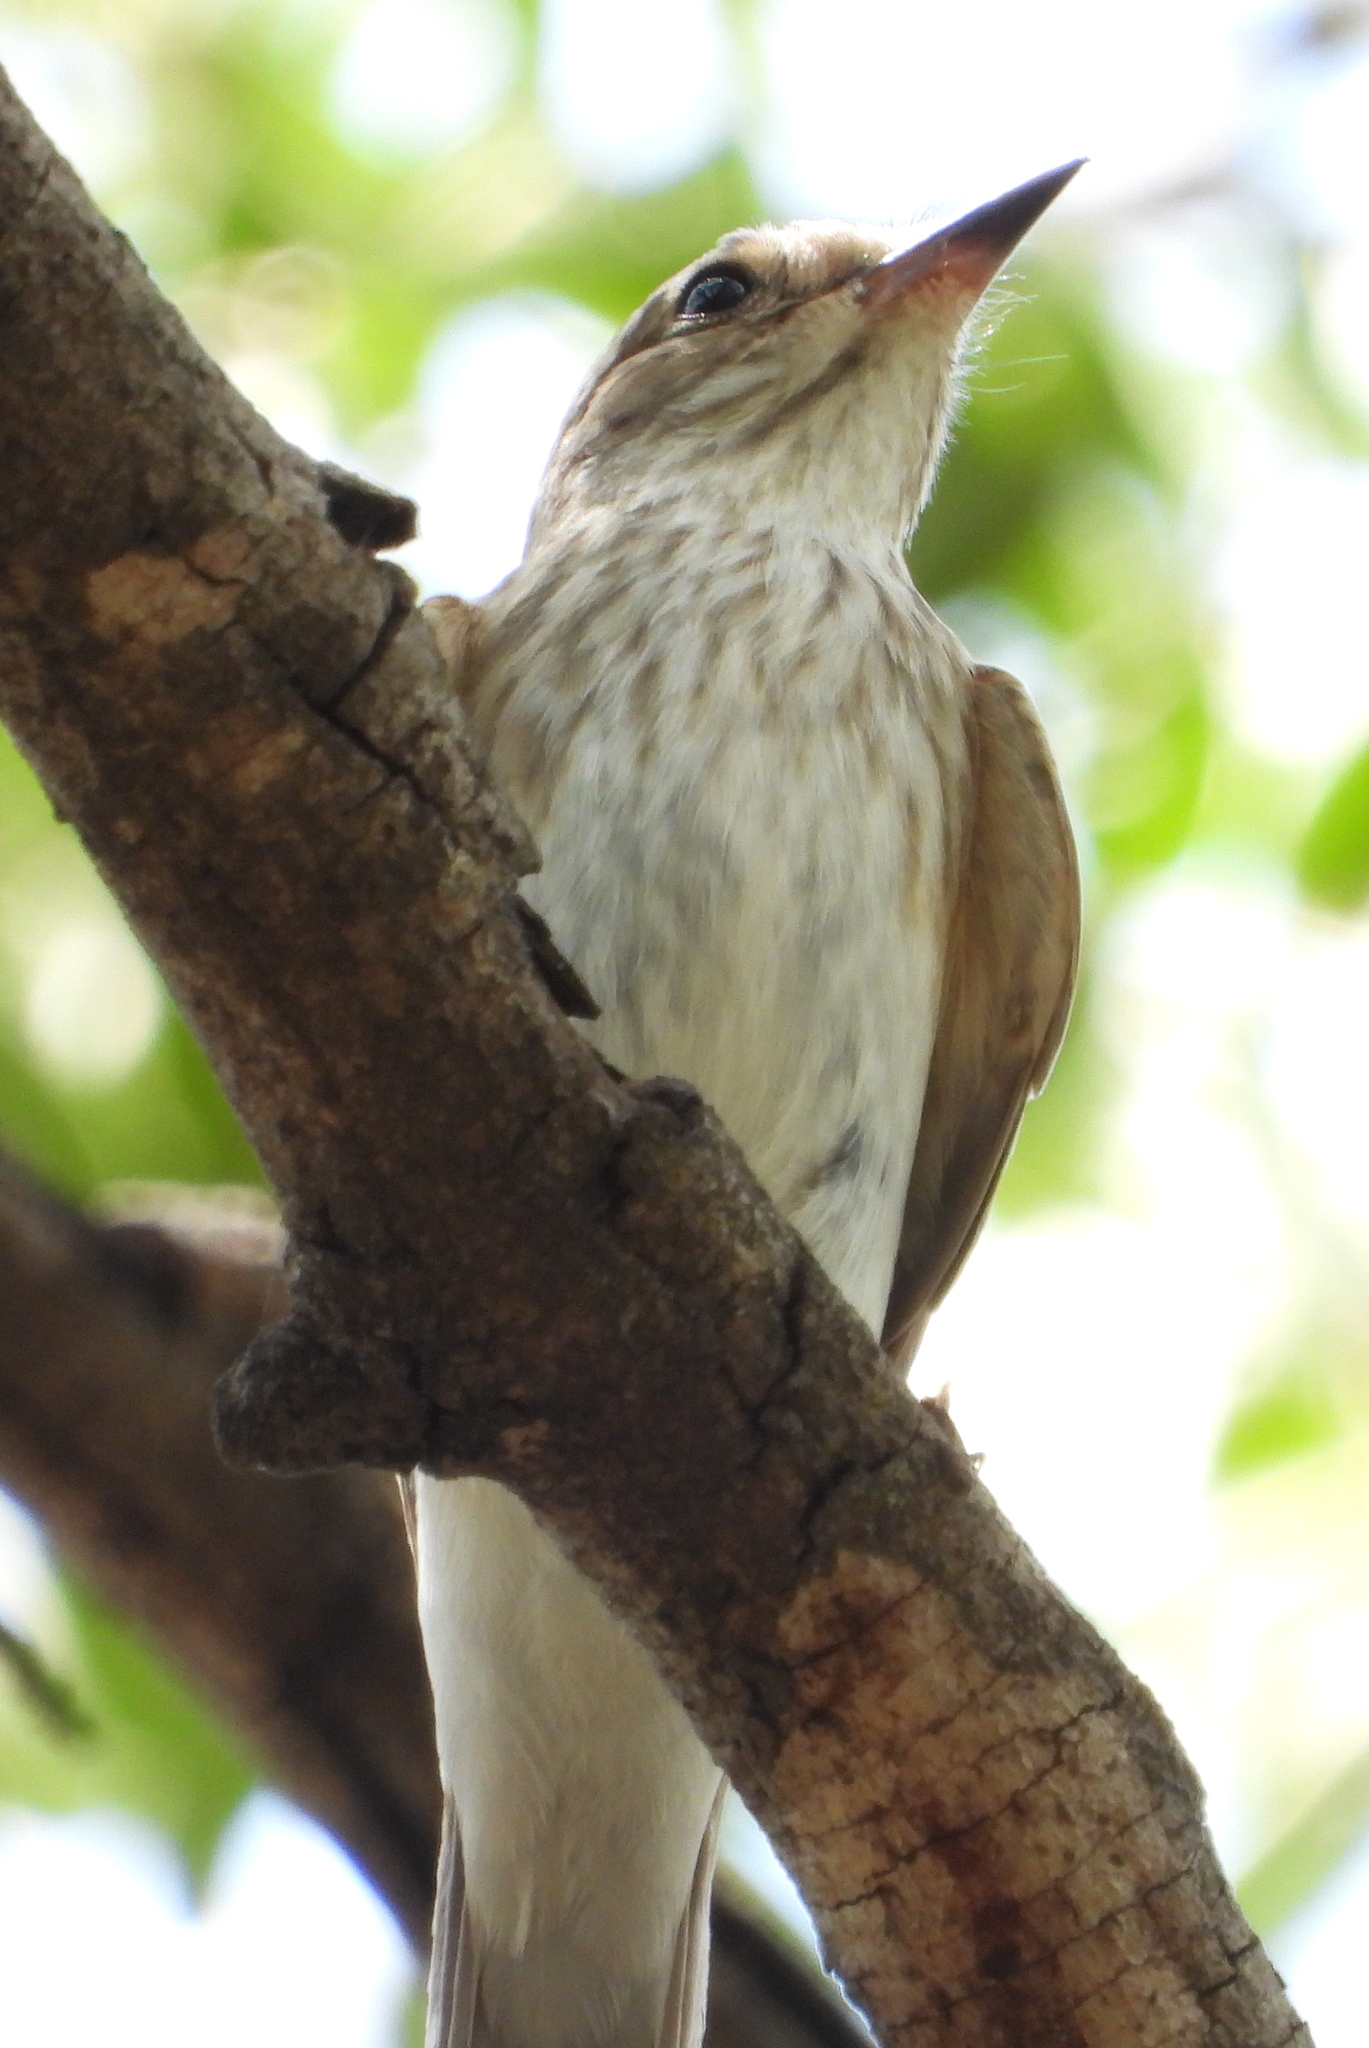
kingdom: Animalia
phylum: Chordata
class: Aves
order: Passeriformes
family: Muscicapidae
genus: Muscicapa
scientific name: Muscicapa striata
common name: Spotted flycatcher
